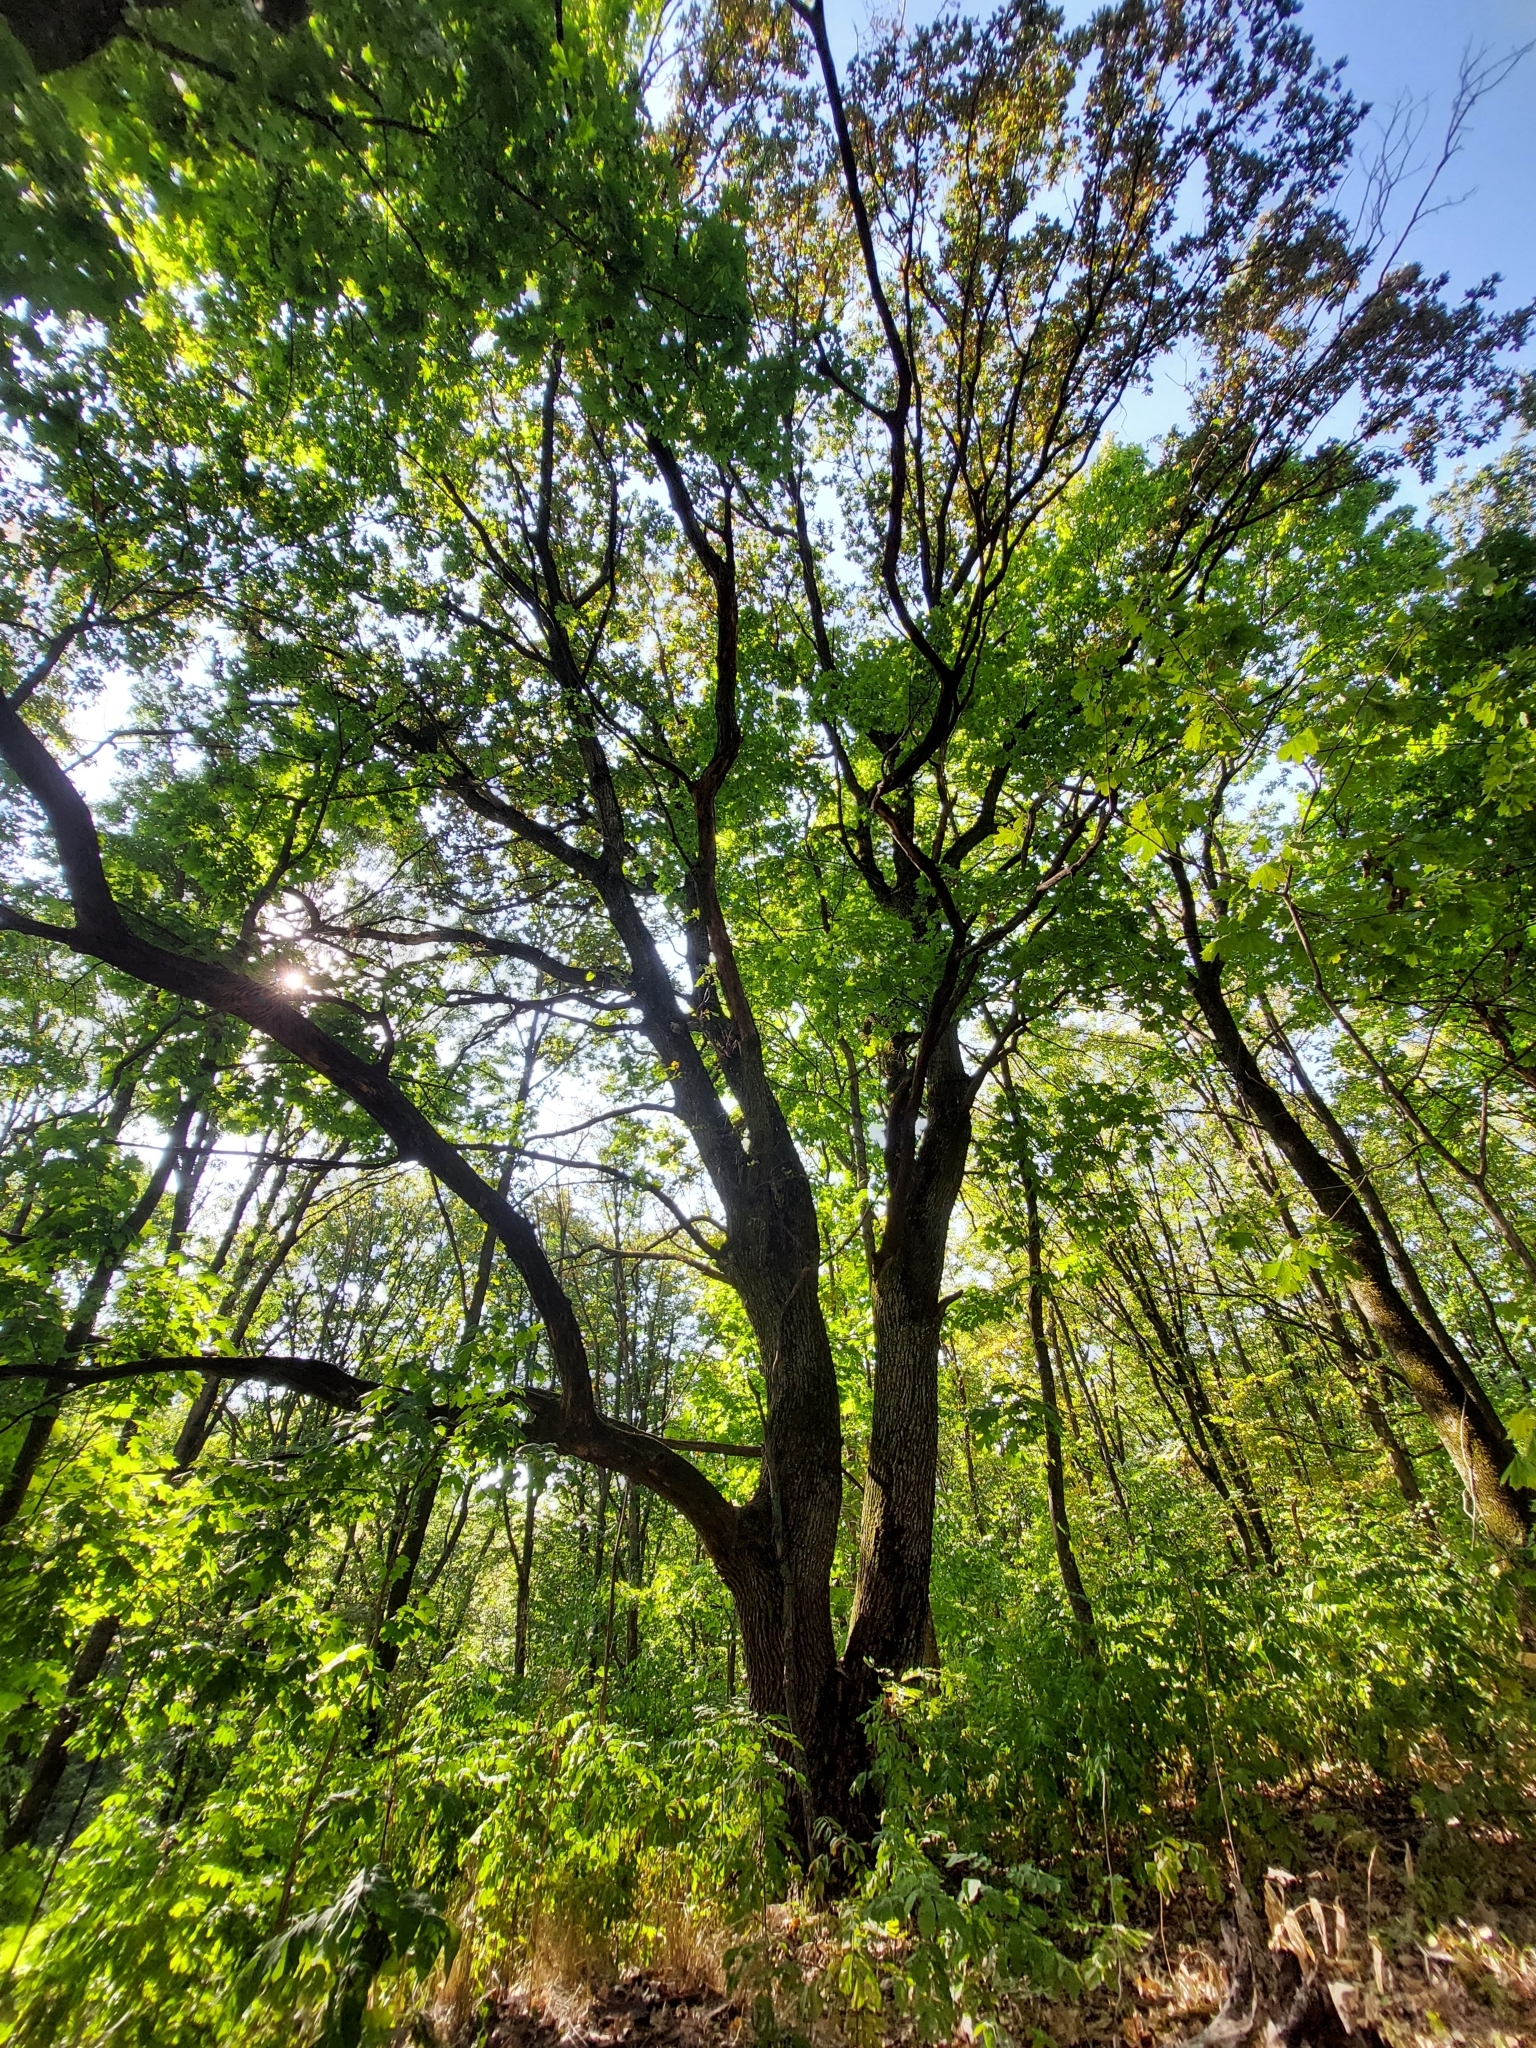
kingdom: Plantae
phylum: Tracheophyta
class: Magnoliopsida
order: Fagales
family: Fagaceae
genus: Quercus
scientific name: Quercus robur
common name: Pedunculate oak
